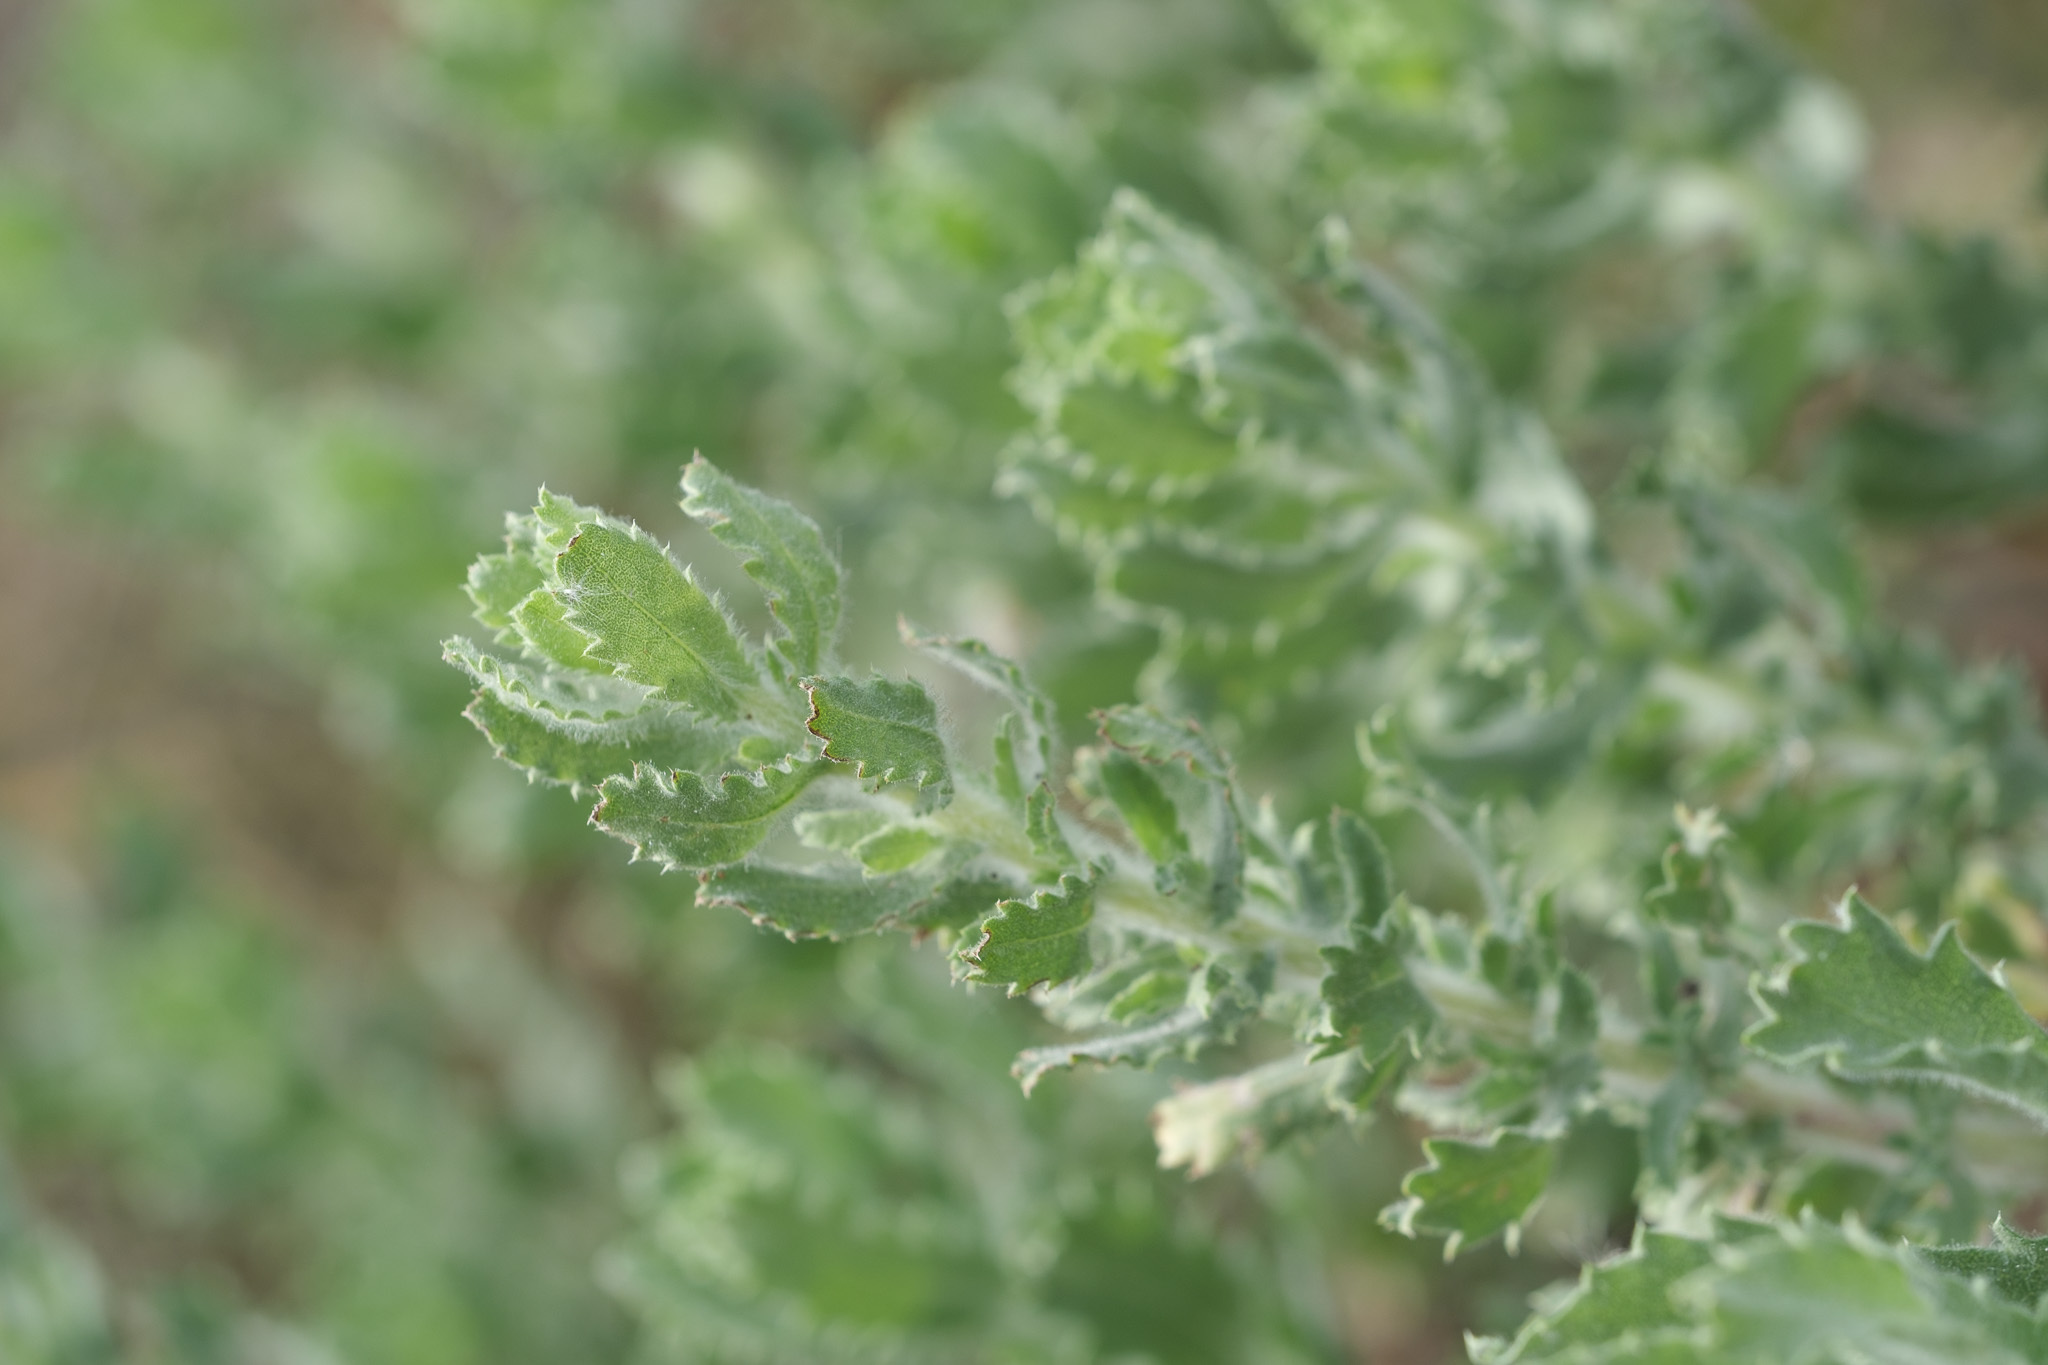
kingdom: Plantae
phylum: Tracheophyta
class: Magnoliopsida
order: Asterales
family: Asteraceae
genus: Isocoma
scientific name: Isocoma menziesii
